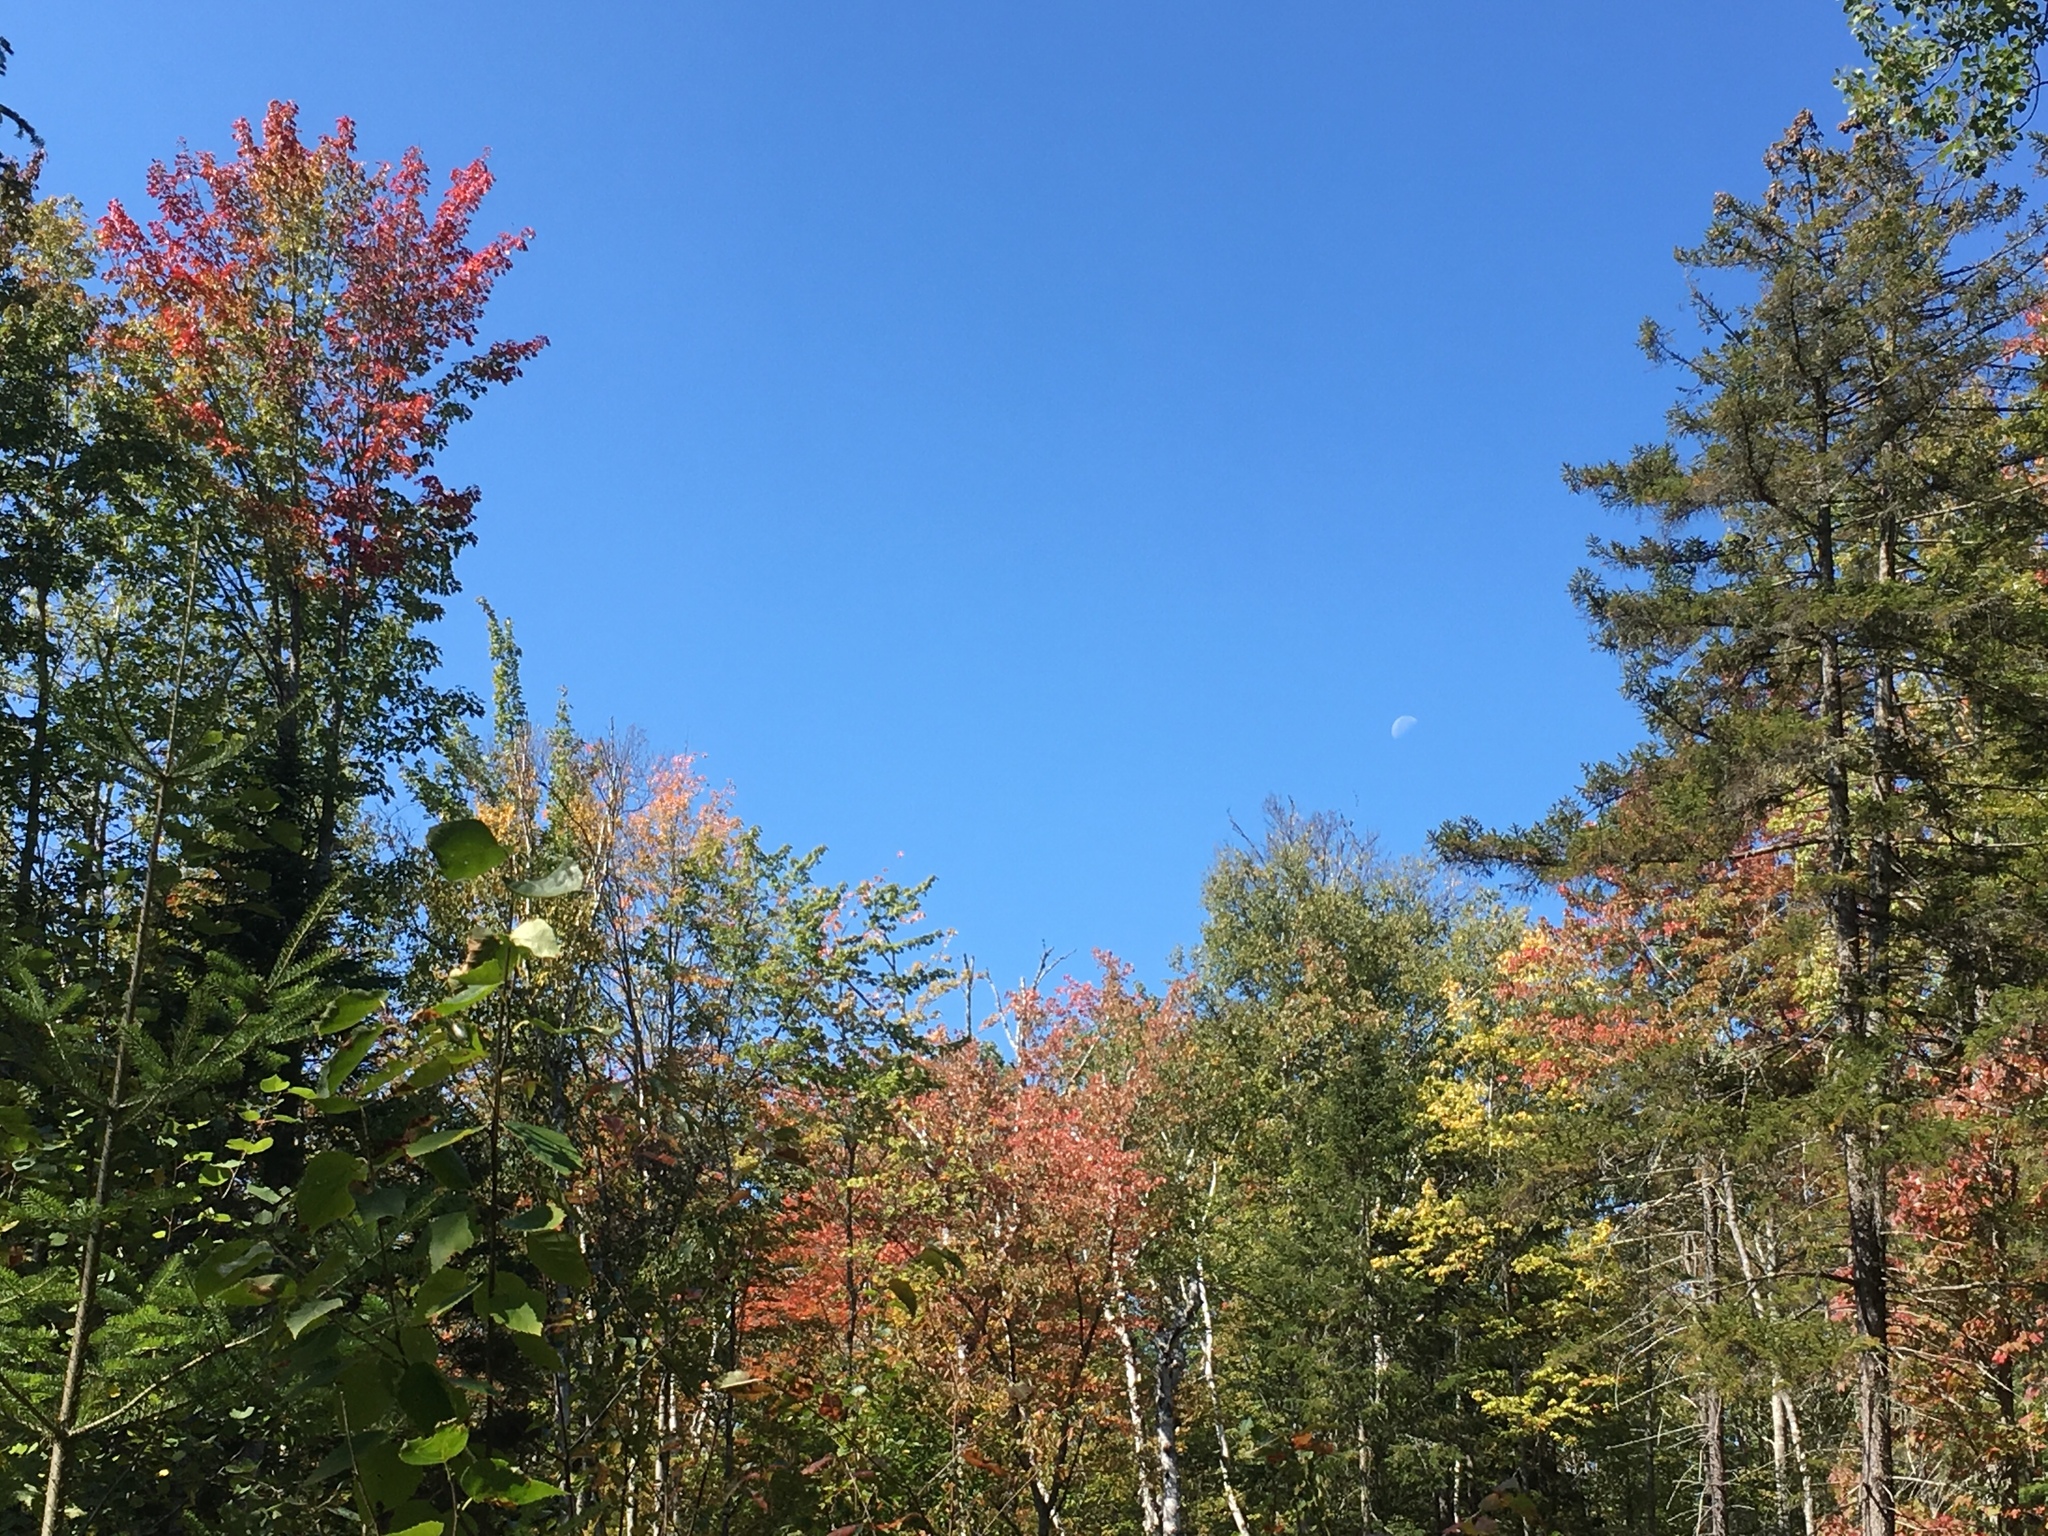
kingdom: Plantae
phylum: Tracheophyta
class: Magnoliopsida
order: Sapindales
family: Sapindaceae
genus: Acer
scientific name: Acer rubrum
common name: Red maple
